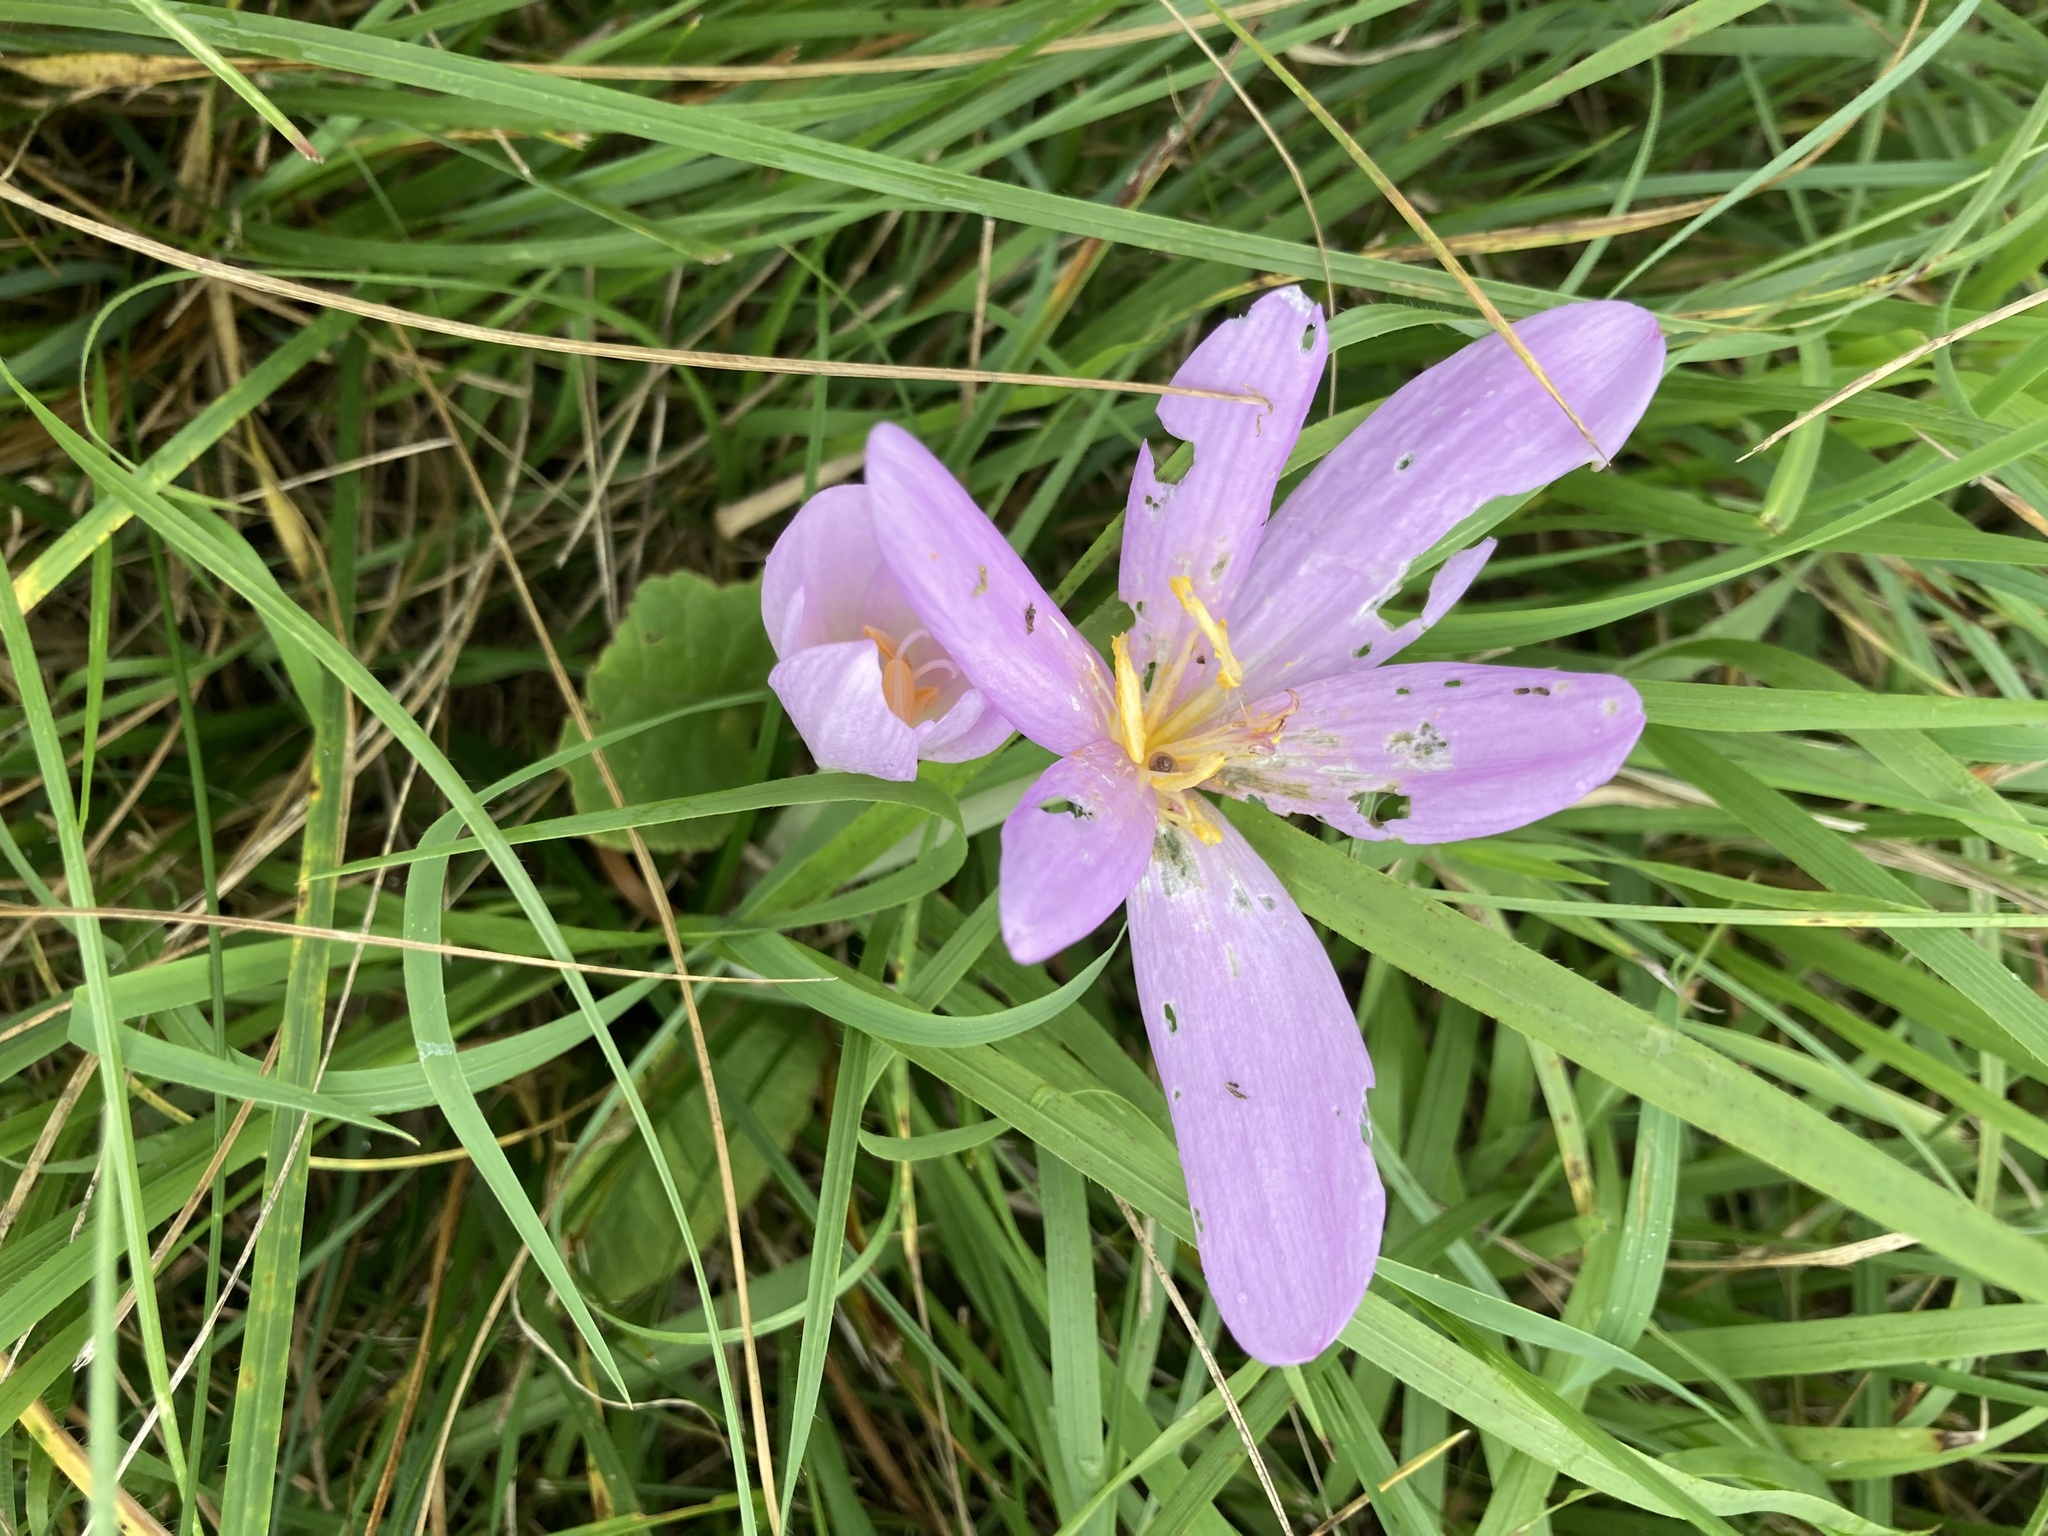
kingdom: Plantae
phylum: Tracheophyta
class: Liliopsida
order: Liliales
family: Colchicaceae
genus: Colchicum
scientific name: Colchicum autumnale
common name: Autumn crocus
